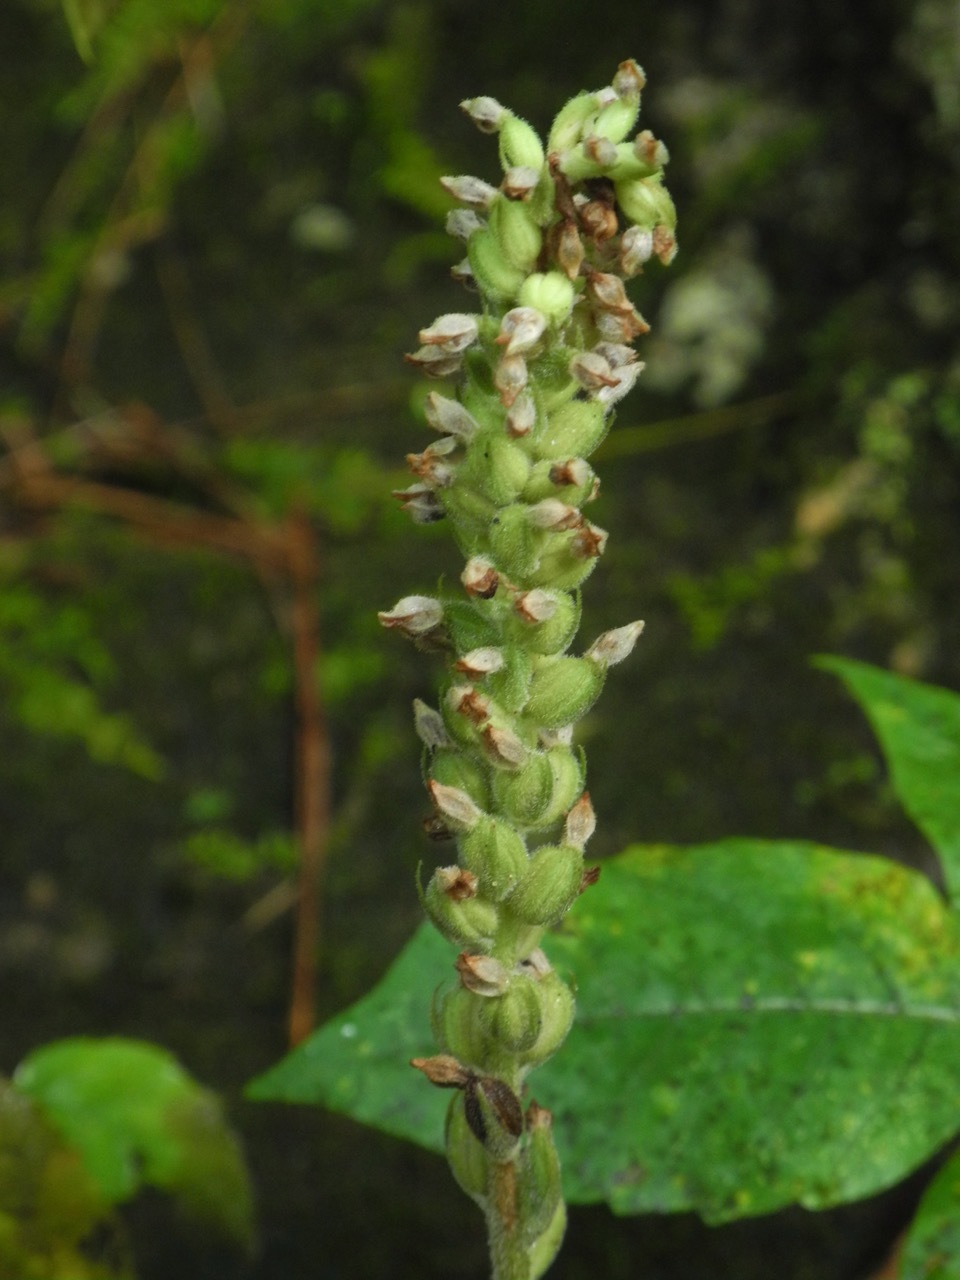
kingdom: Plantae
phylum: Tracheophyta
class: Liliopsida
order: Asparagales
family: Orchidaceae
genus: Goodyera
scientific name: Goodyera pubescens
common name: Downy rattlesnake-plantain
